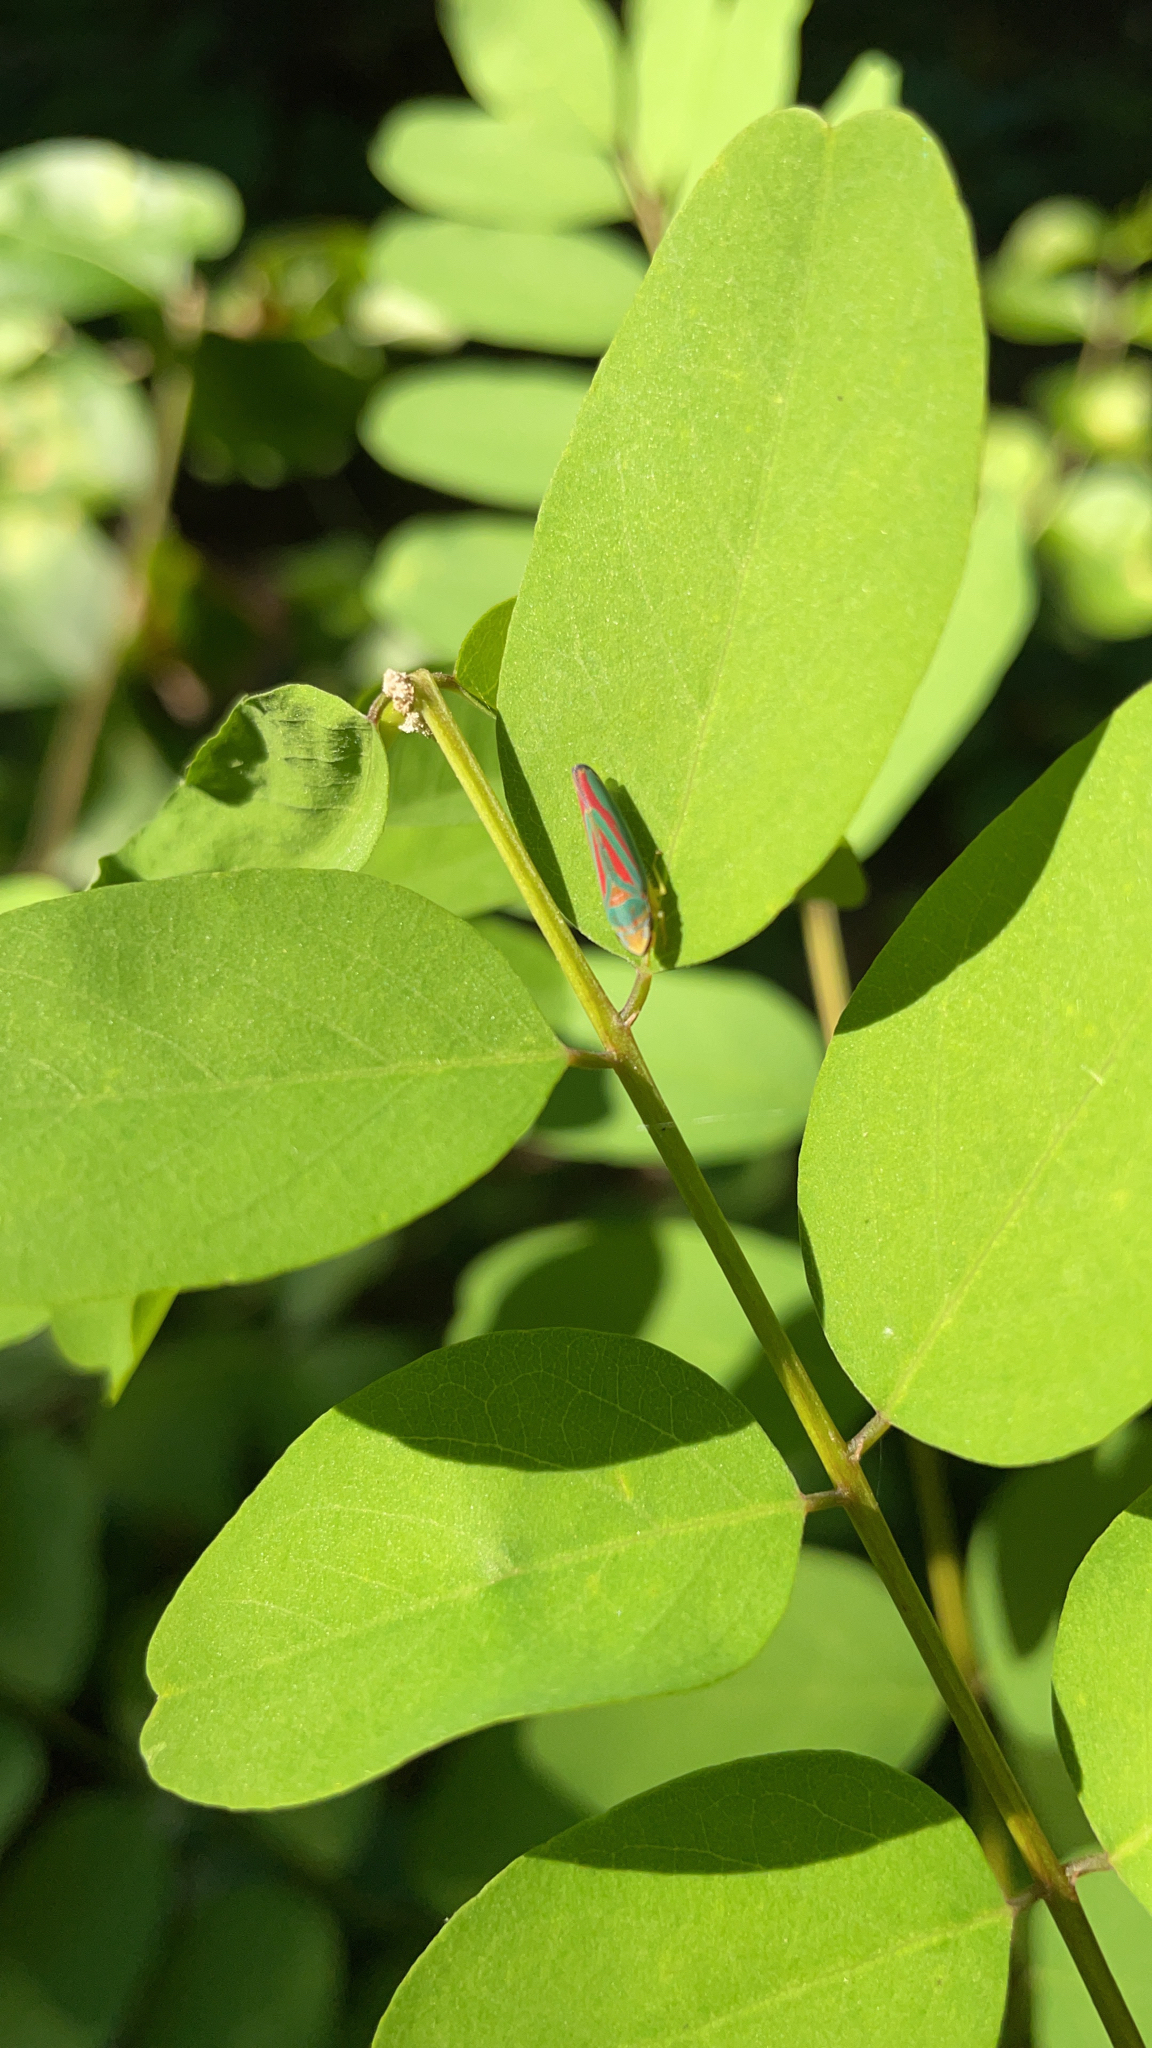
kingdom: Animalia
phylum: Arthropoda
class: Insecta
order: Hemiptera
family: Cicadellidae
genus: Graphocephala
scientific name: Graphocephala coccinea
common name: Candy-striped leafhopper
